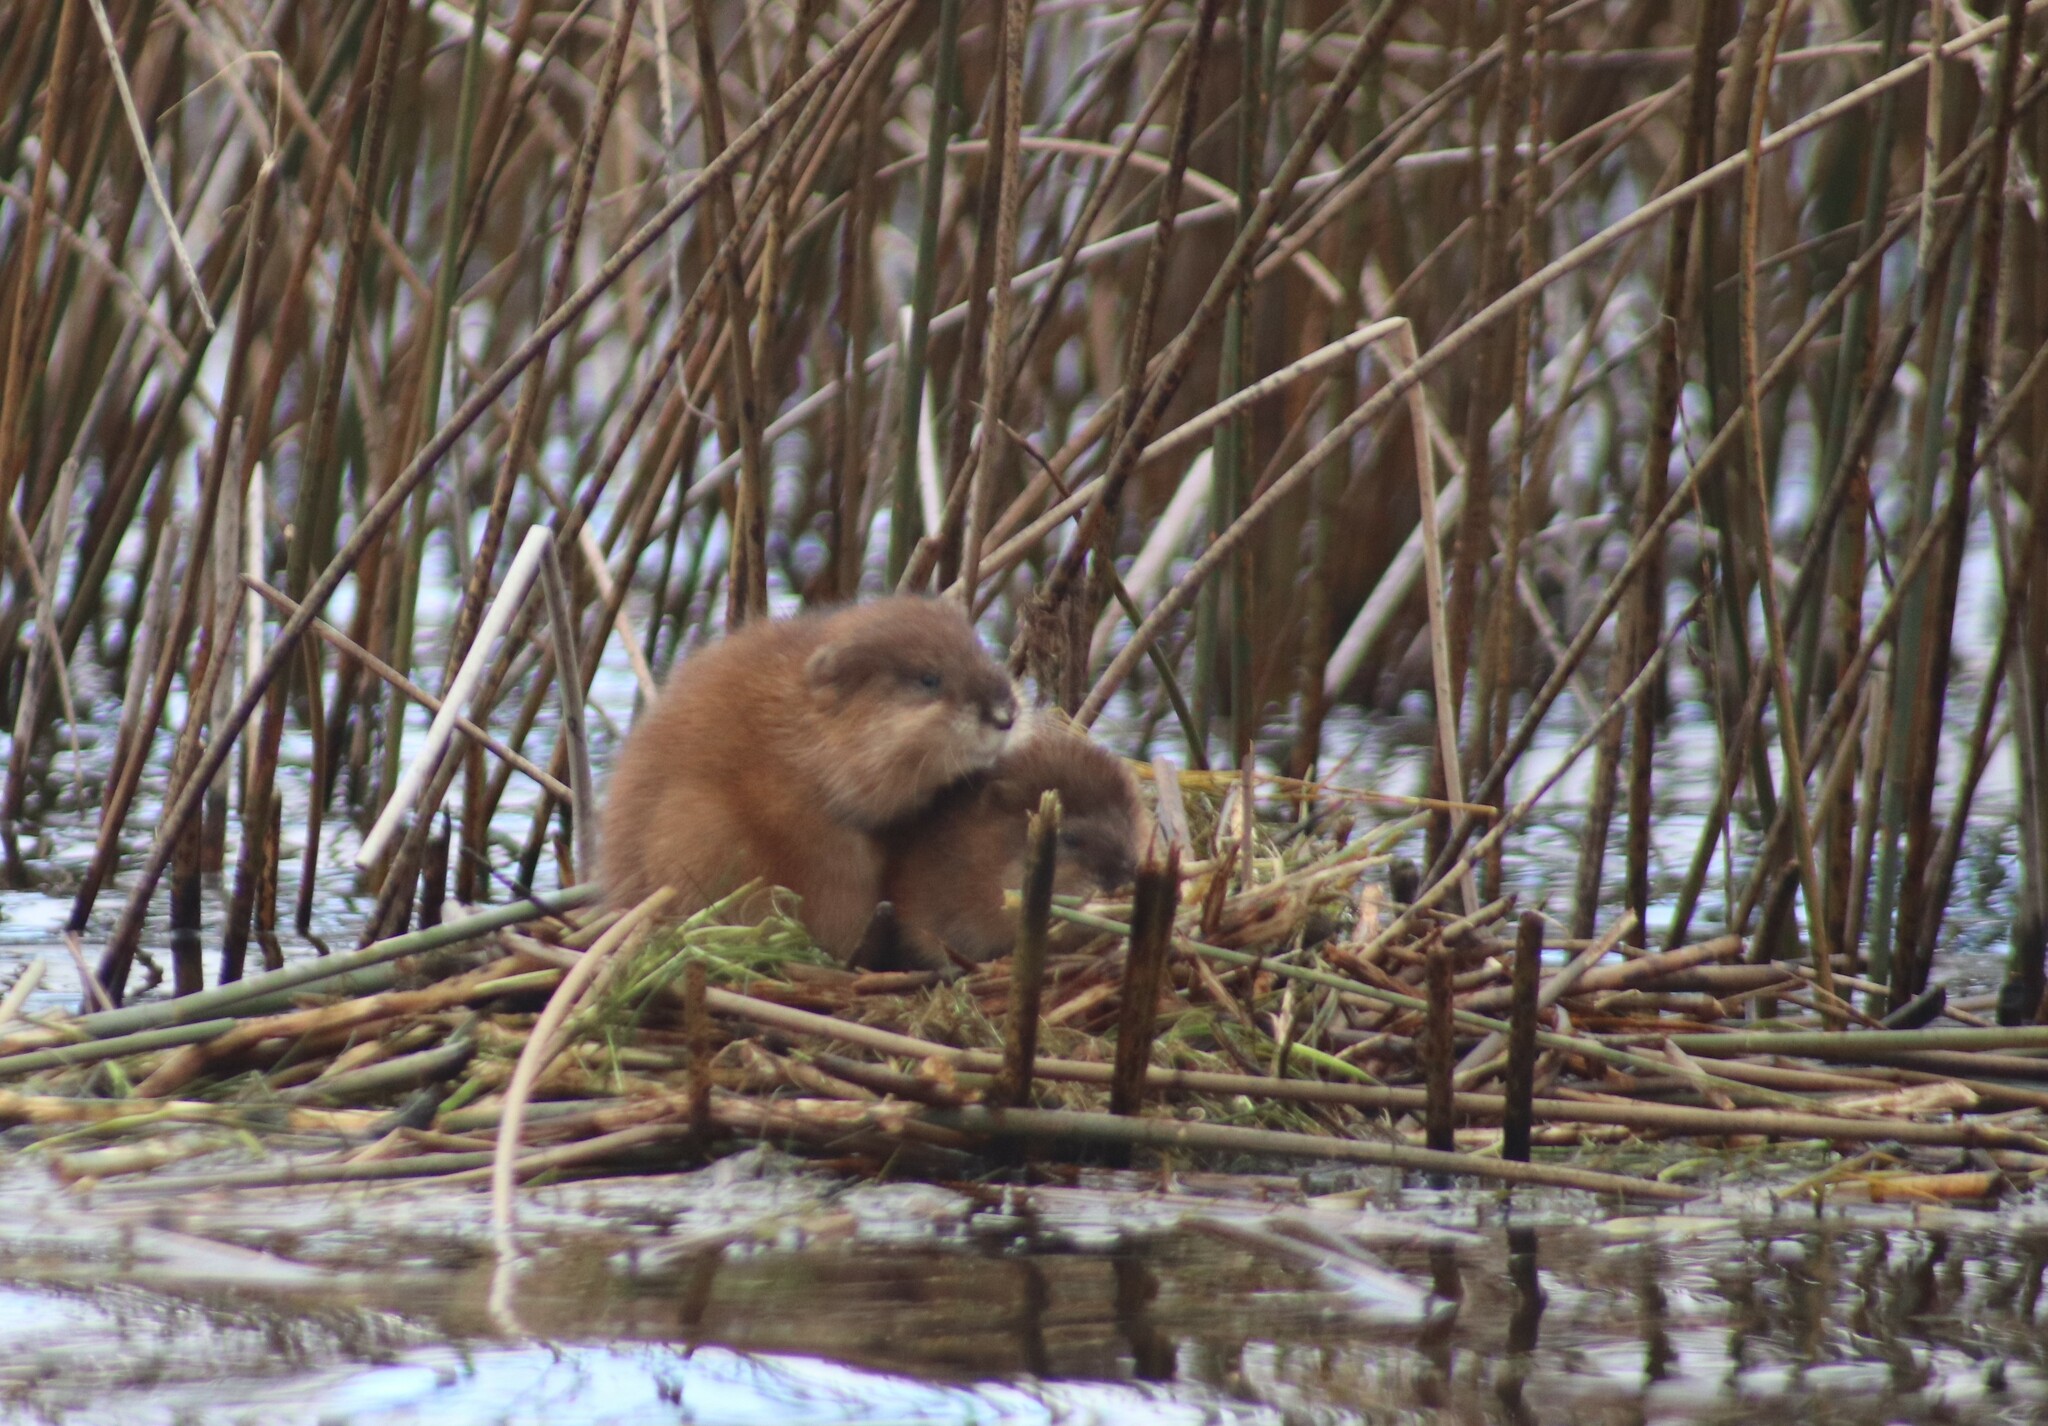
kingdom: Animalia
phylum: Chordata
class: Mammalia
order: Rodentia
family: Cricetidae
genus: Ondatra
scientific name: Ondatra zibethicus
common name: Muskrat
